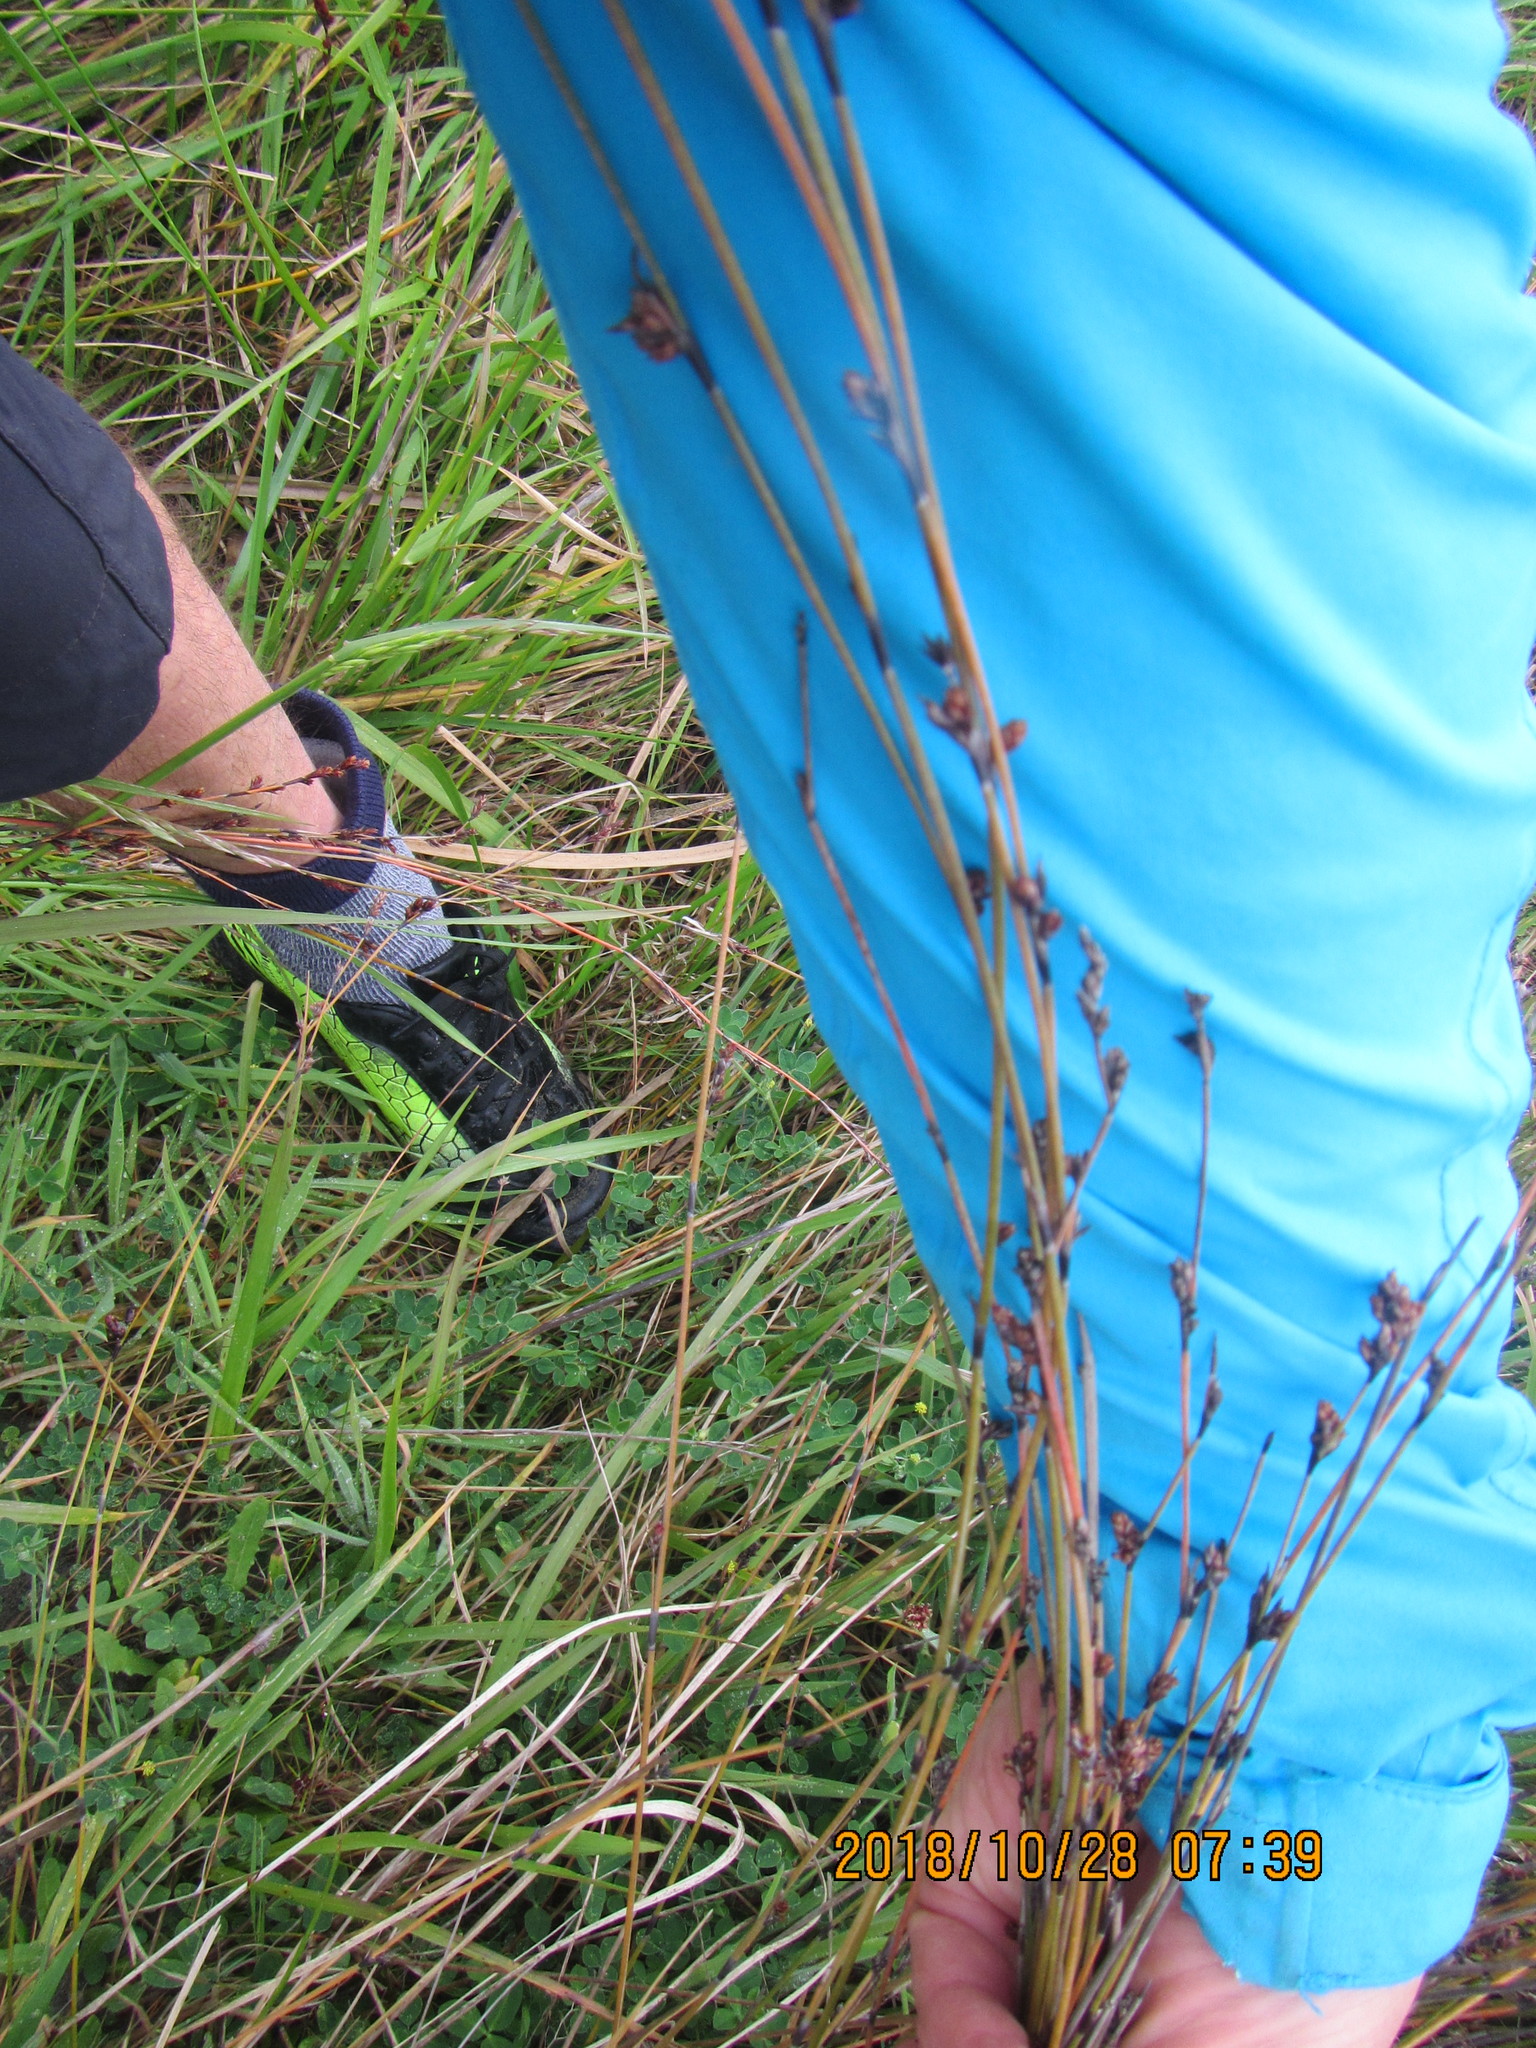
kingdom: Plantae
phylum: Tracheophyta
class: Liliopsida
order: Poales
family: Restionaceae
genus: Apodasmia
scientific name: Apodasmia similis
